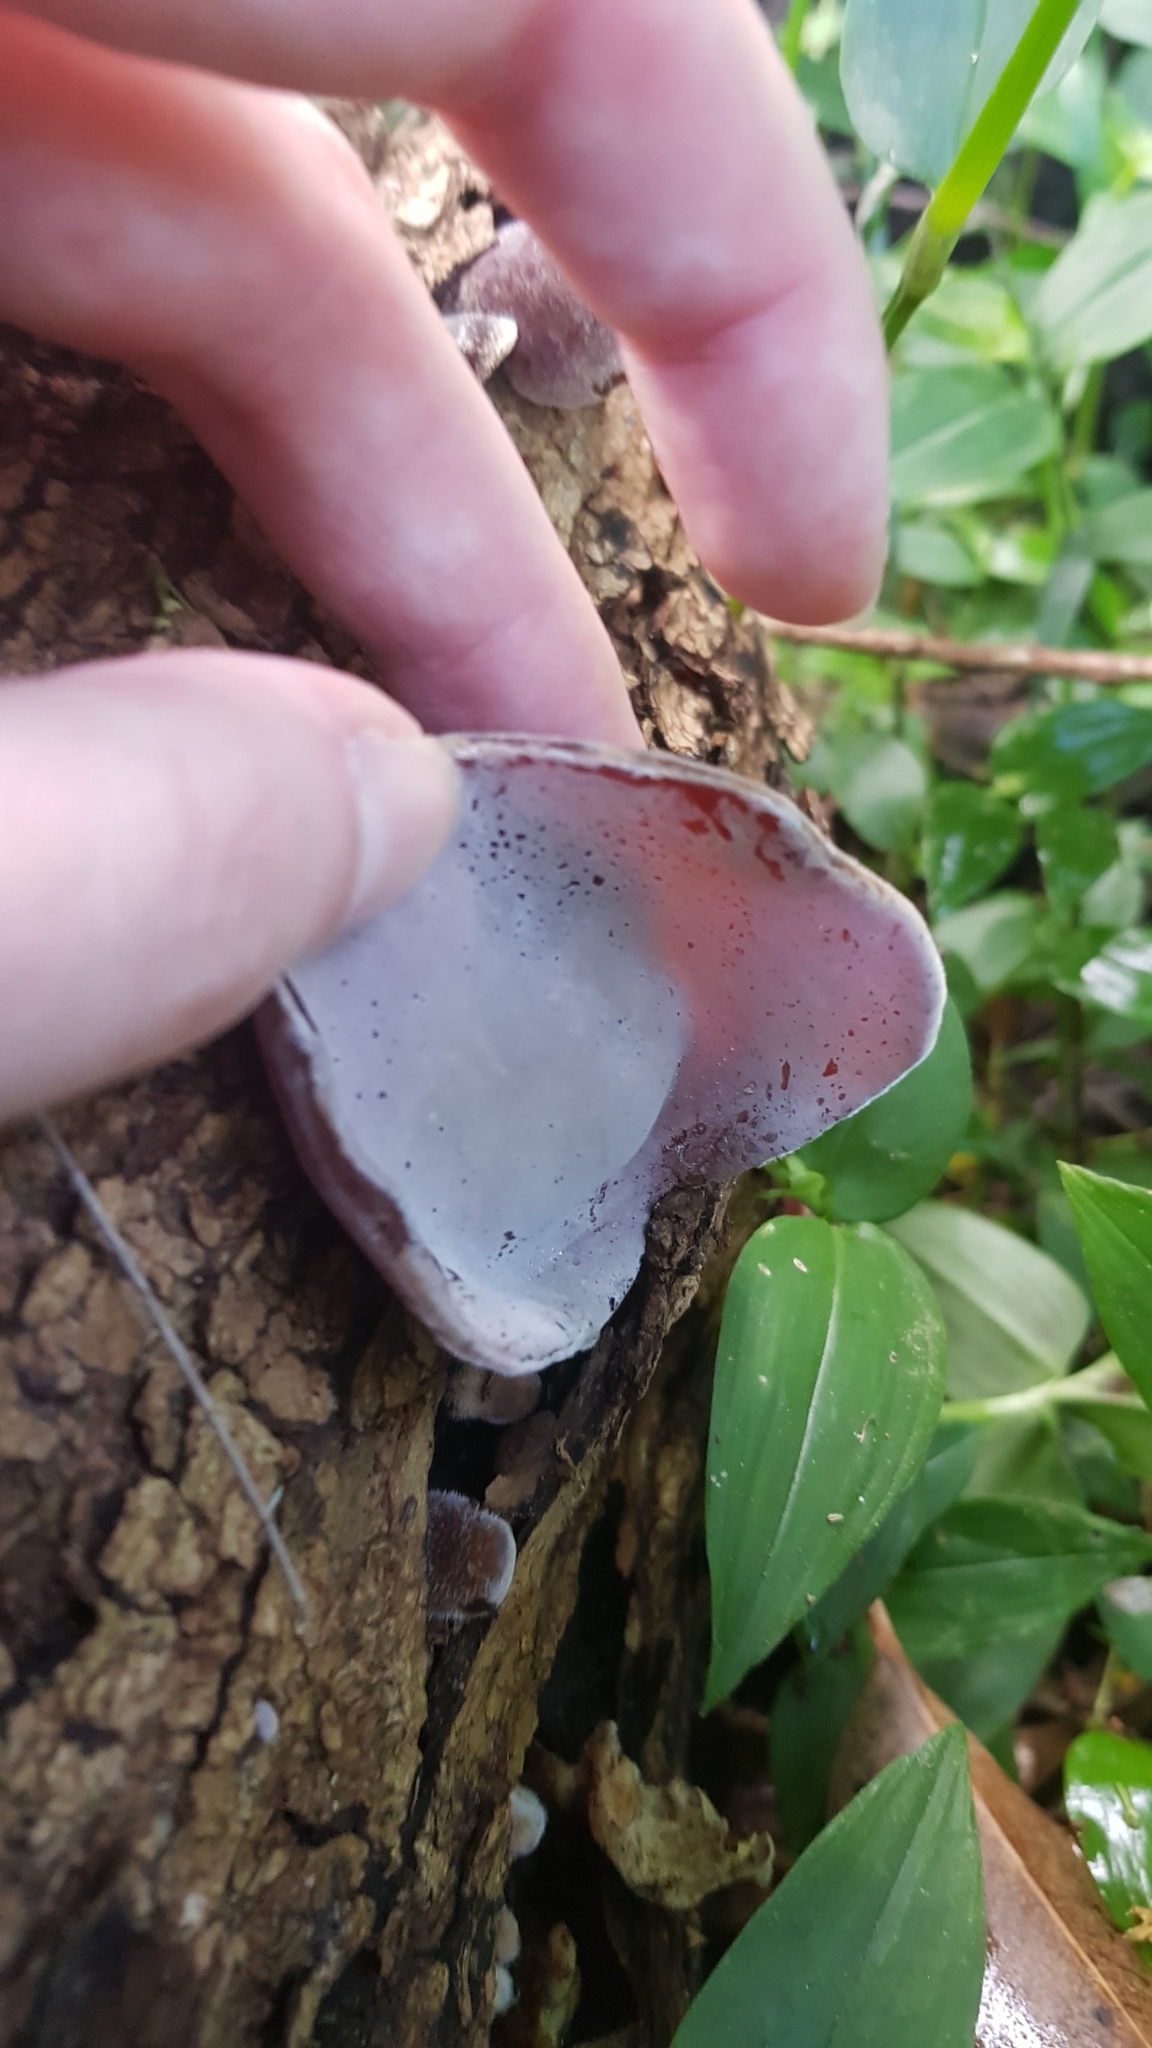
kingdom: Fungi
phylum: Basidiomycota
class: Agaricomycetes
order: Auriculariales
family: Auriculariaceae
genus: Auricularia
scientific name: Auricularia cornea
